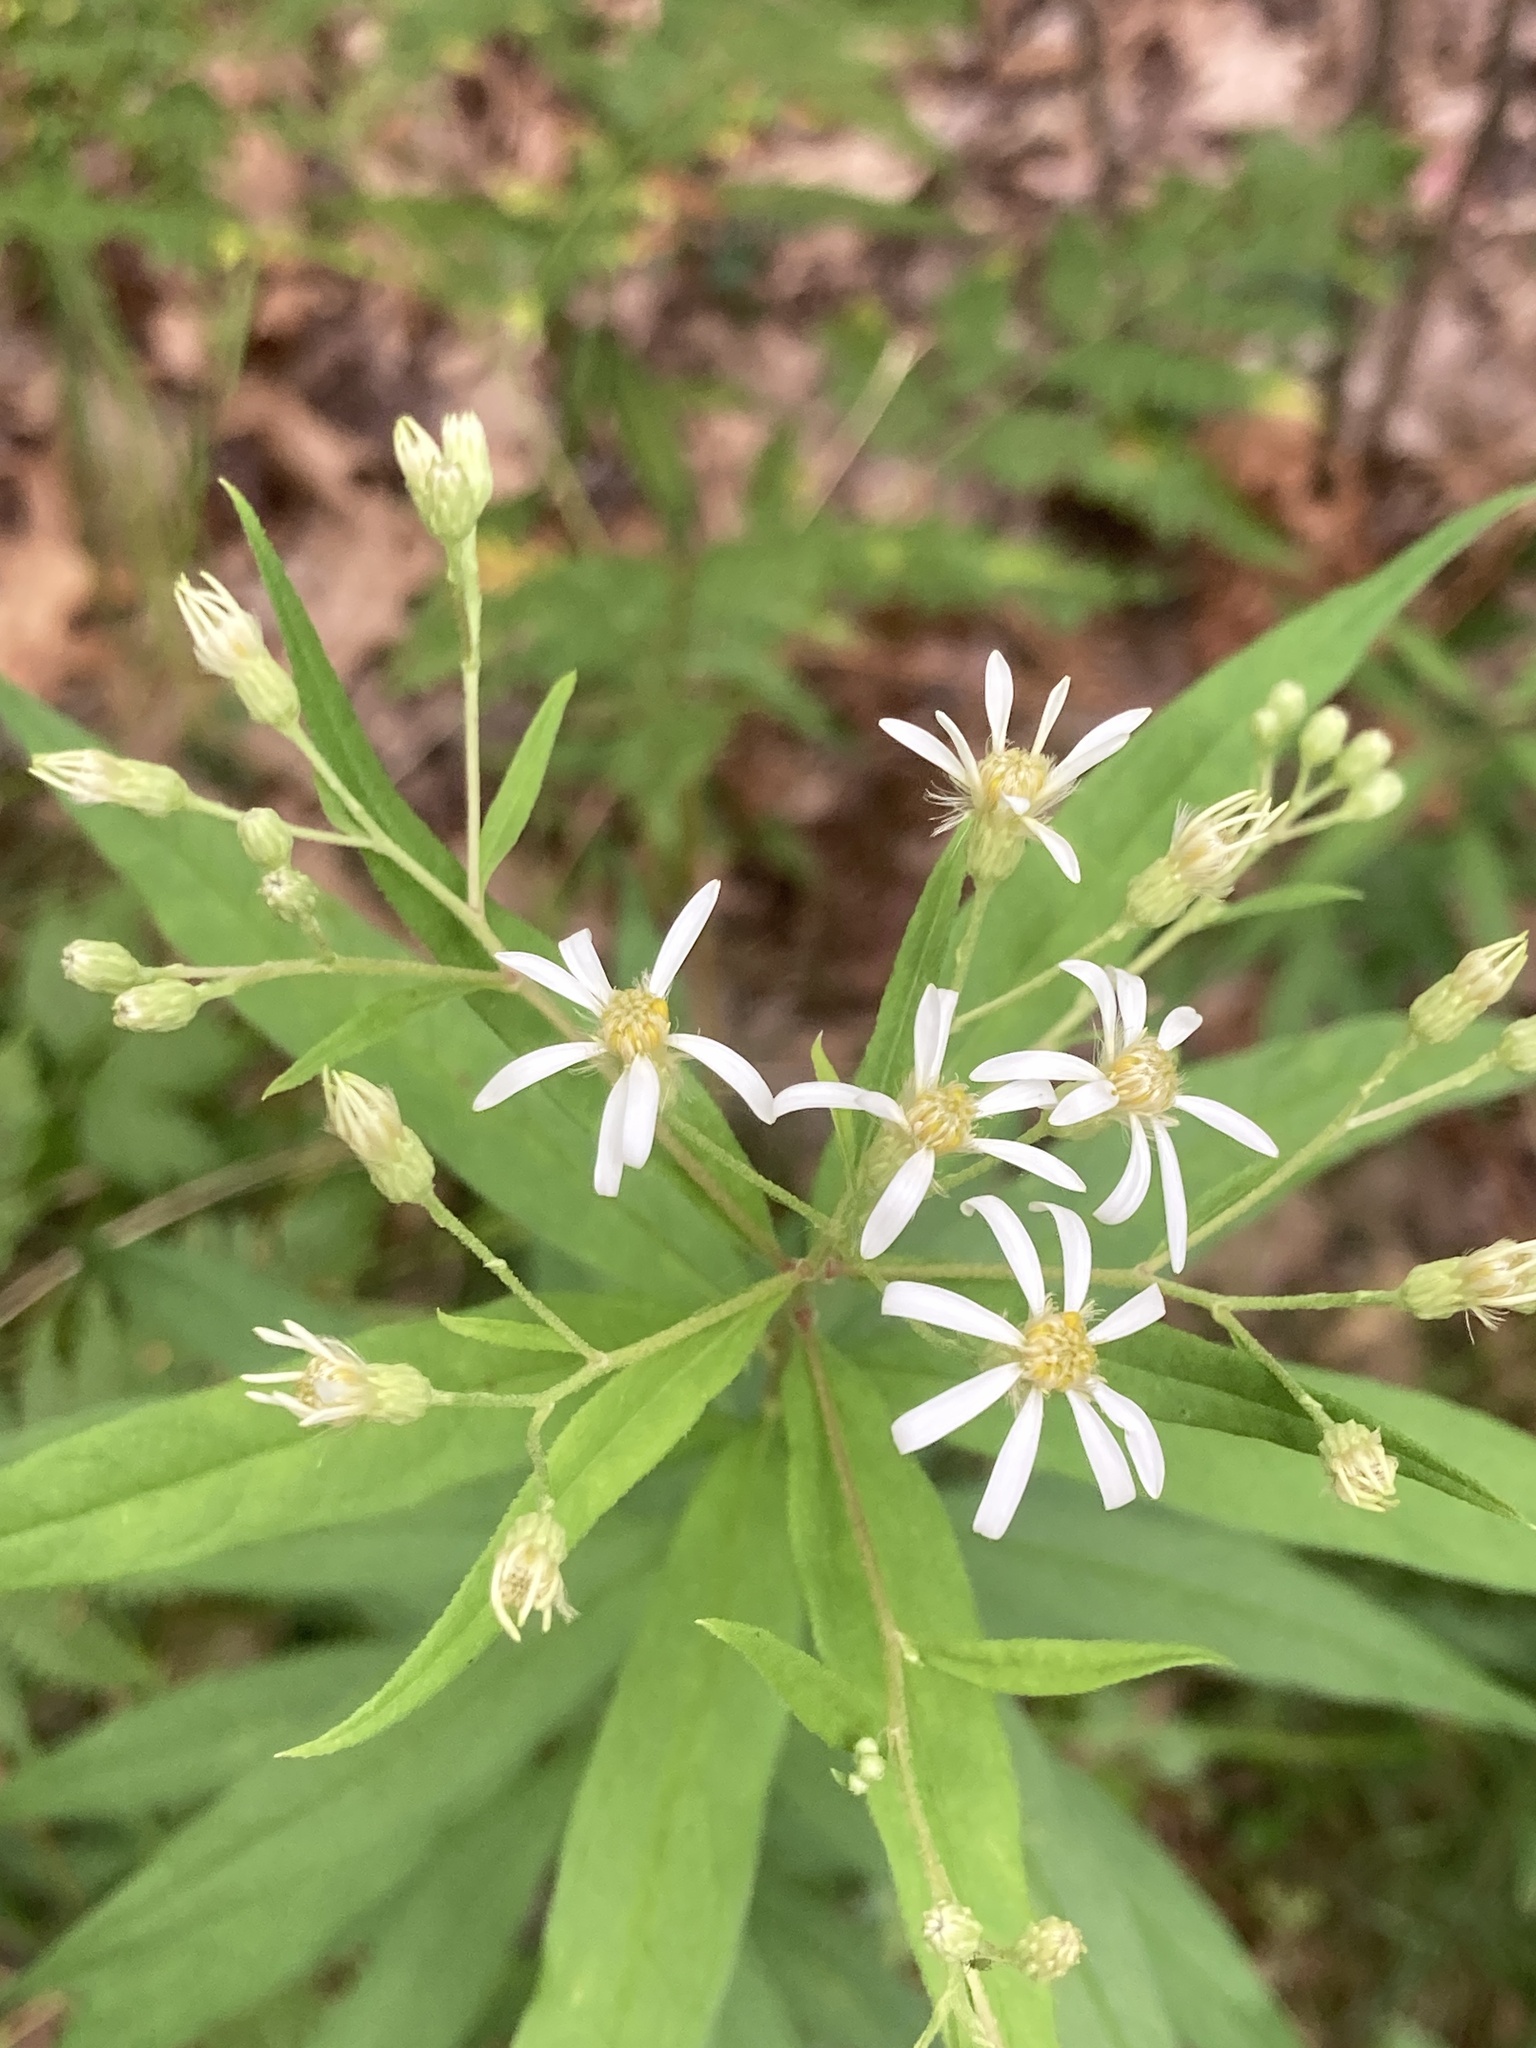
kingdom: Plantae
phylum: Tracheophyta
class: Magnoliopsida
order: Asterales
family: Asteraceae
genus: Doellingeria
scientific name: Doellingeria umbellata
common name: Flat-top white aster
